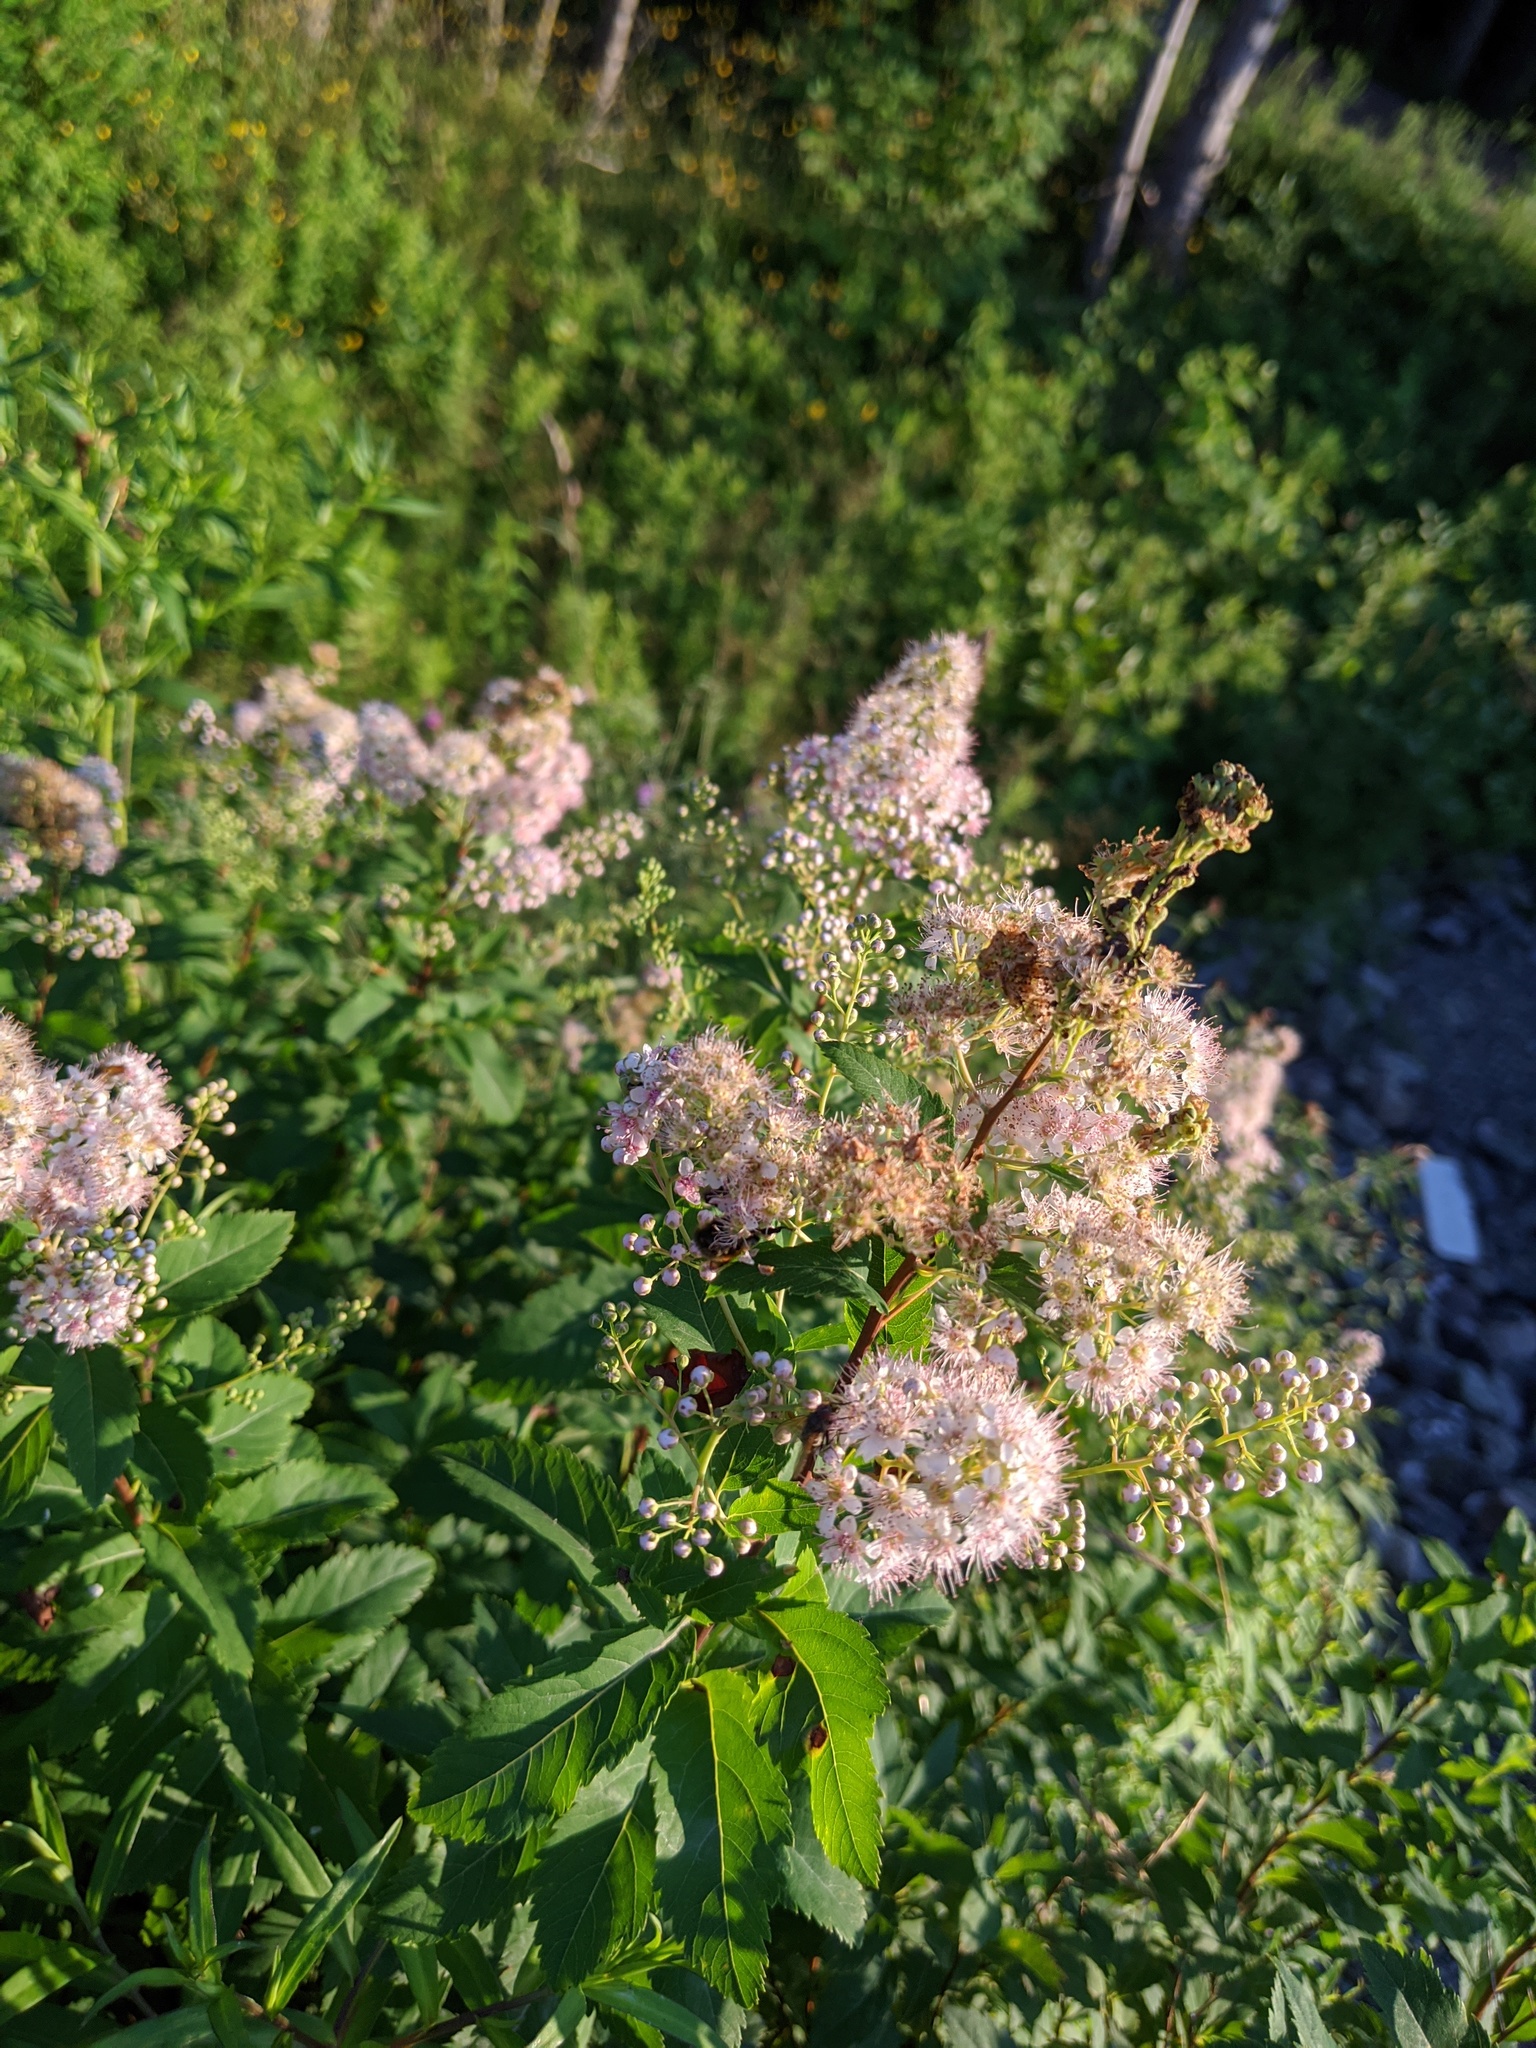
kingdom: Plantae
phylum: Tracheophyta
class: Magnoliopsida
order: Rosales
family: Rosaceae
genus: Spiraea
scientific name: Spiraea alba
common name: Pale bridewort
